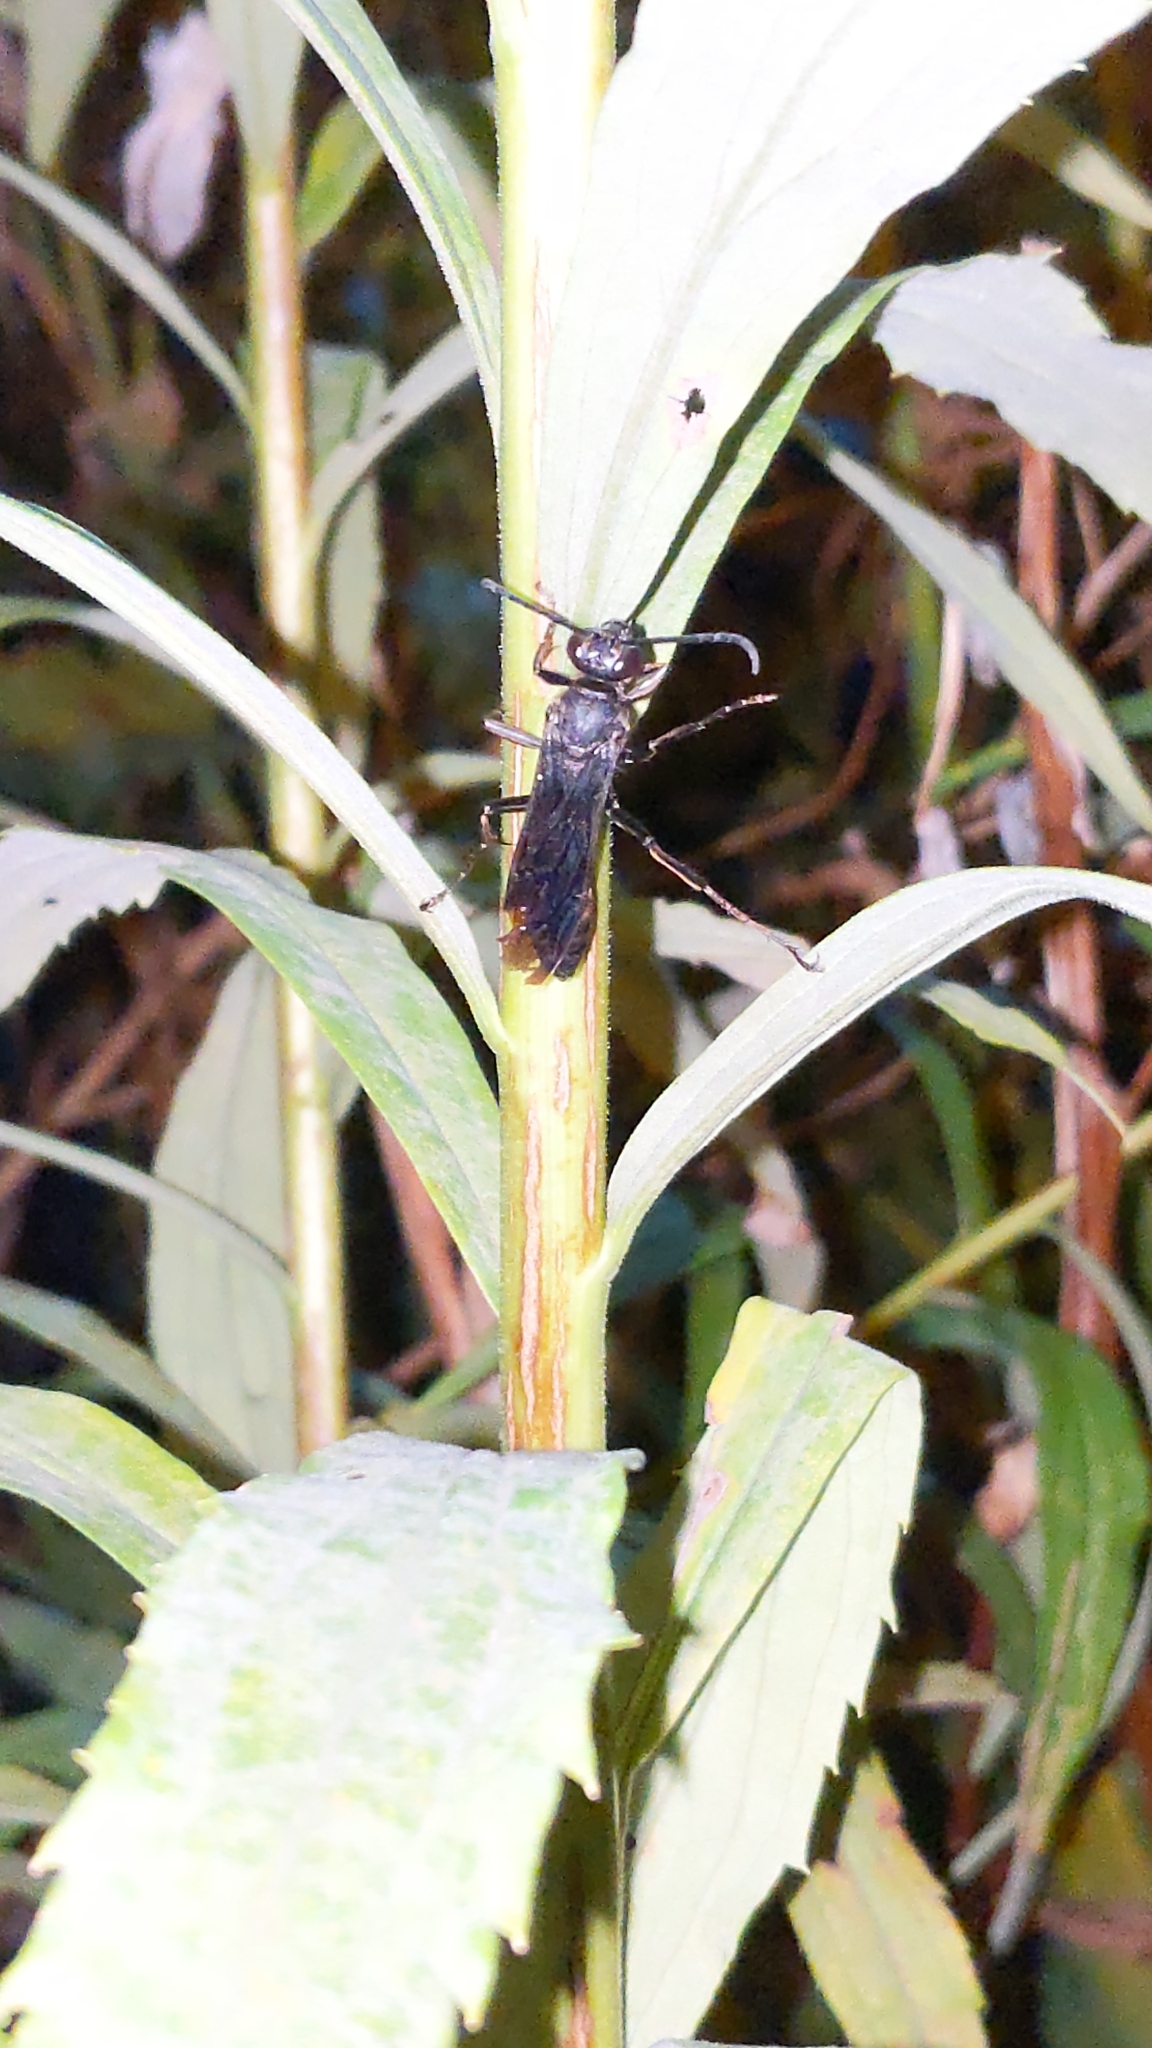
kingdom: Animalia
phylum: Arthropoda
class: Insecta
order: Hymenoptera
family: Sphecidae
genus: Sphex
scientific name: Sphex pensylvanicus
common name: Great black digger wasp
